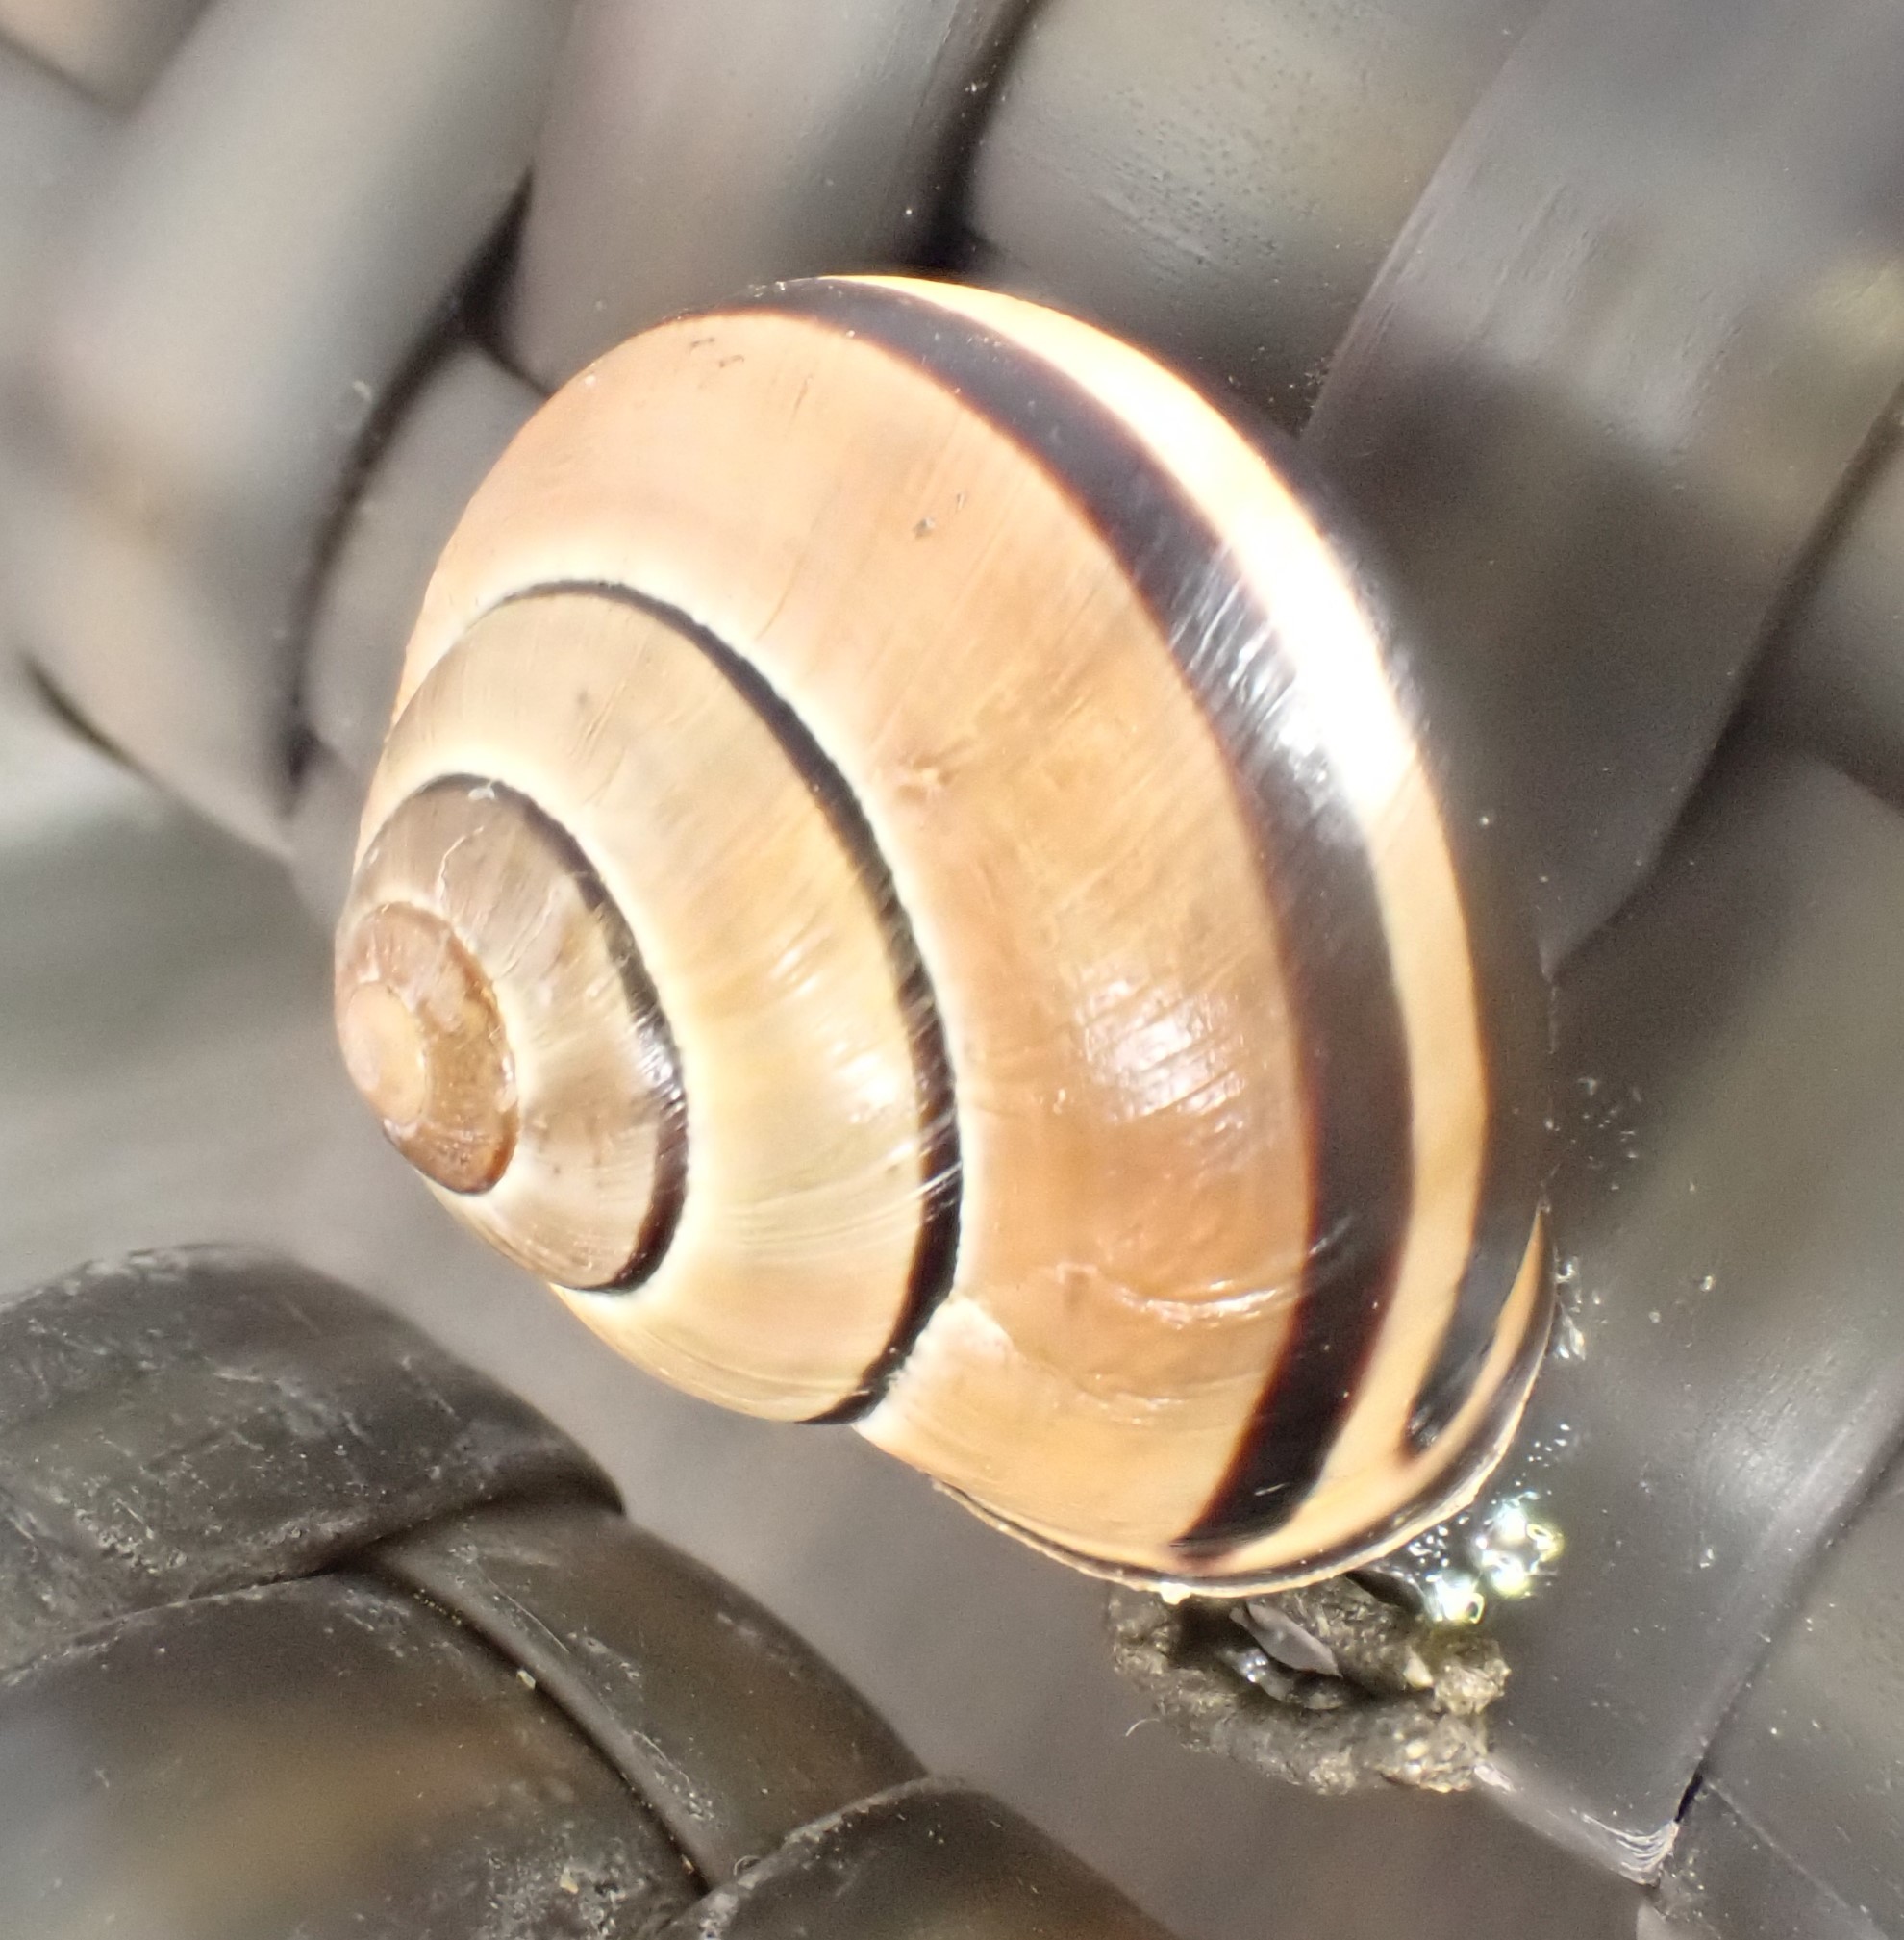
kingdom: Animalia
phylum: Mollusca
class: Gastropoda
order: Stylommatophora
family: Helicidae
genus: Cepaea
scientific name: Cepaea nemoralis
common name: Grovesnail
